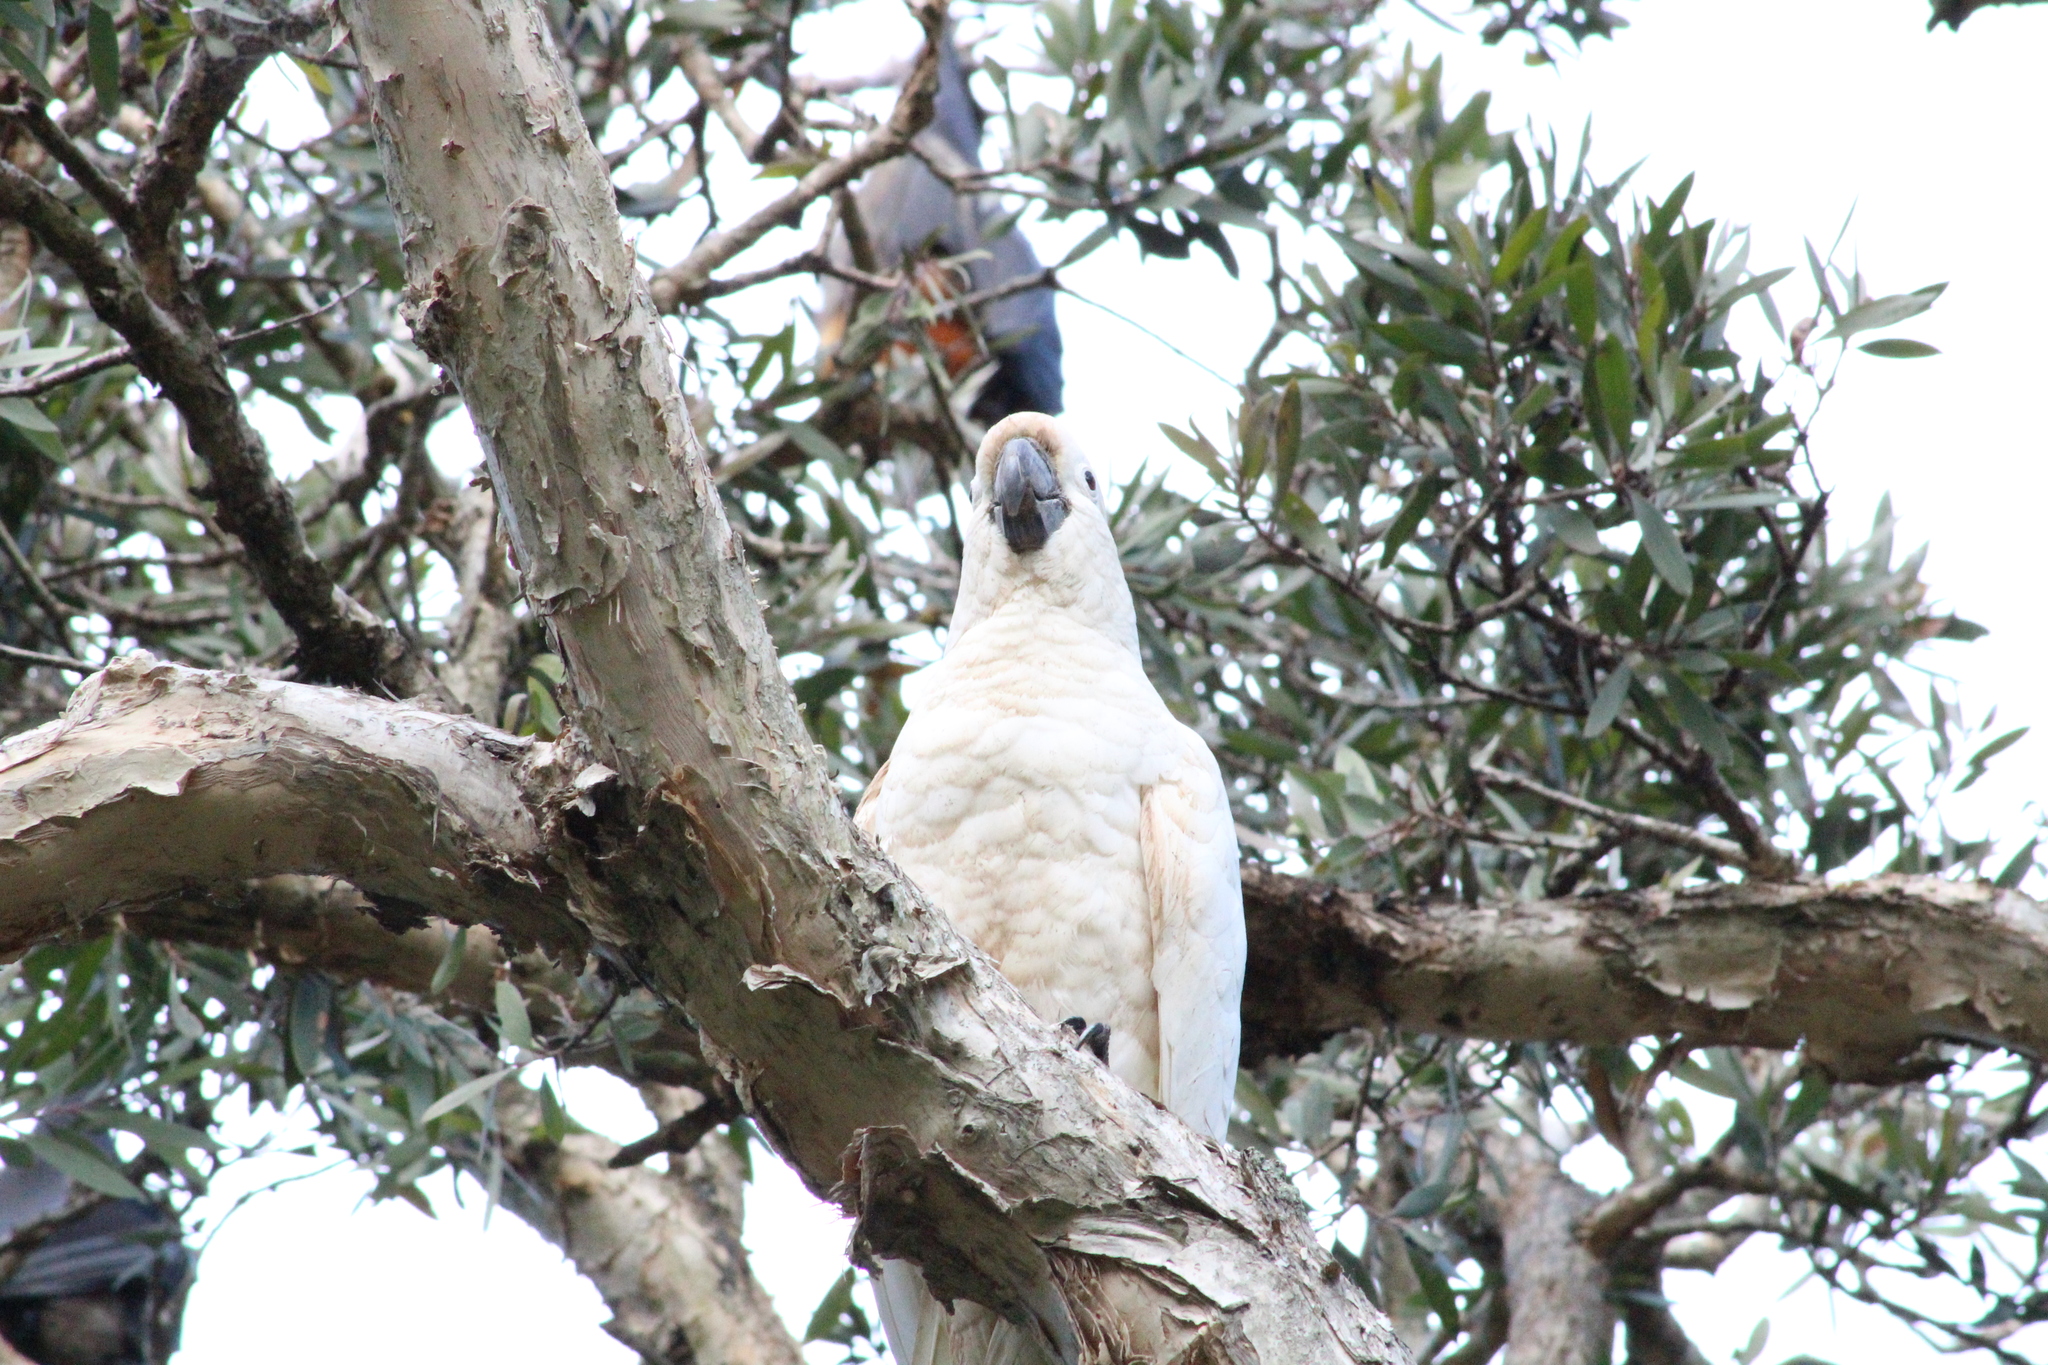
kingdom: Animalia
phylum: Chordata
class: Aves
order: Psittaciformes
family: Psittacidae
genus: Cacatua
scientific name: Cacatua galerita
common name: Sulphur-crested cockatoo
